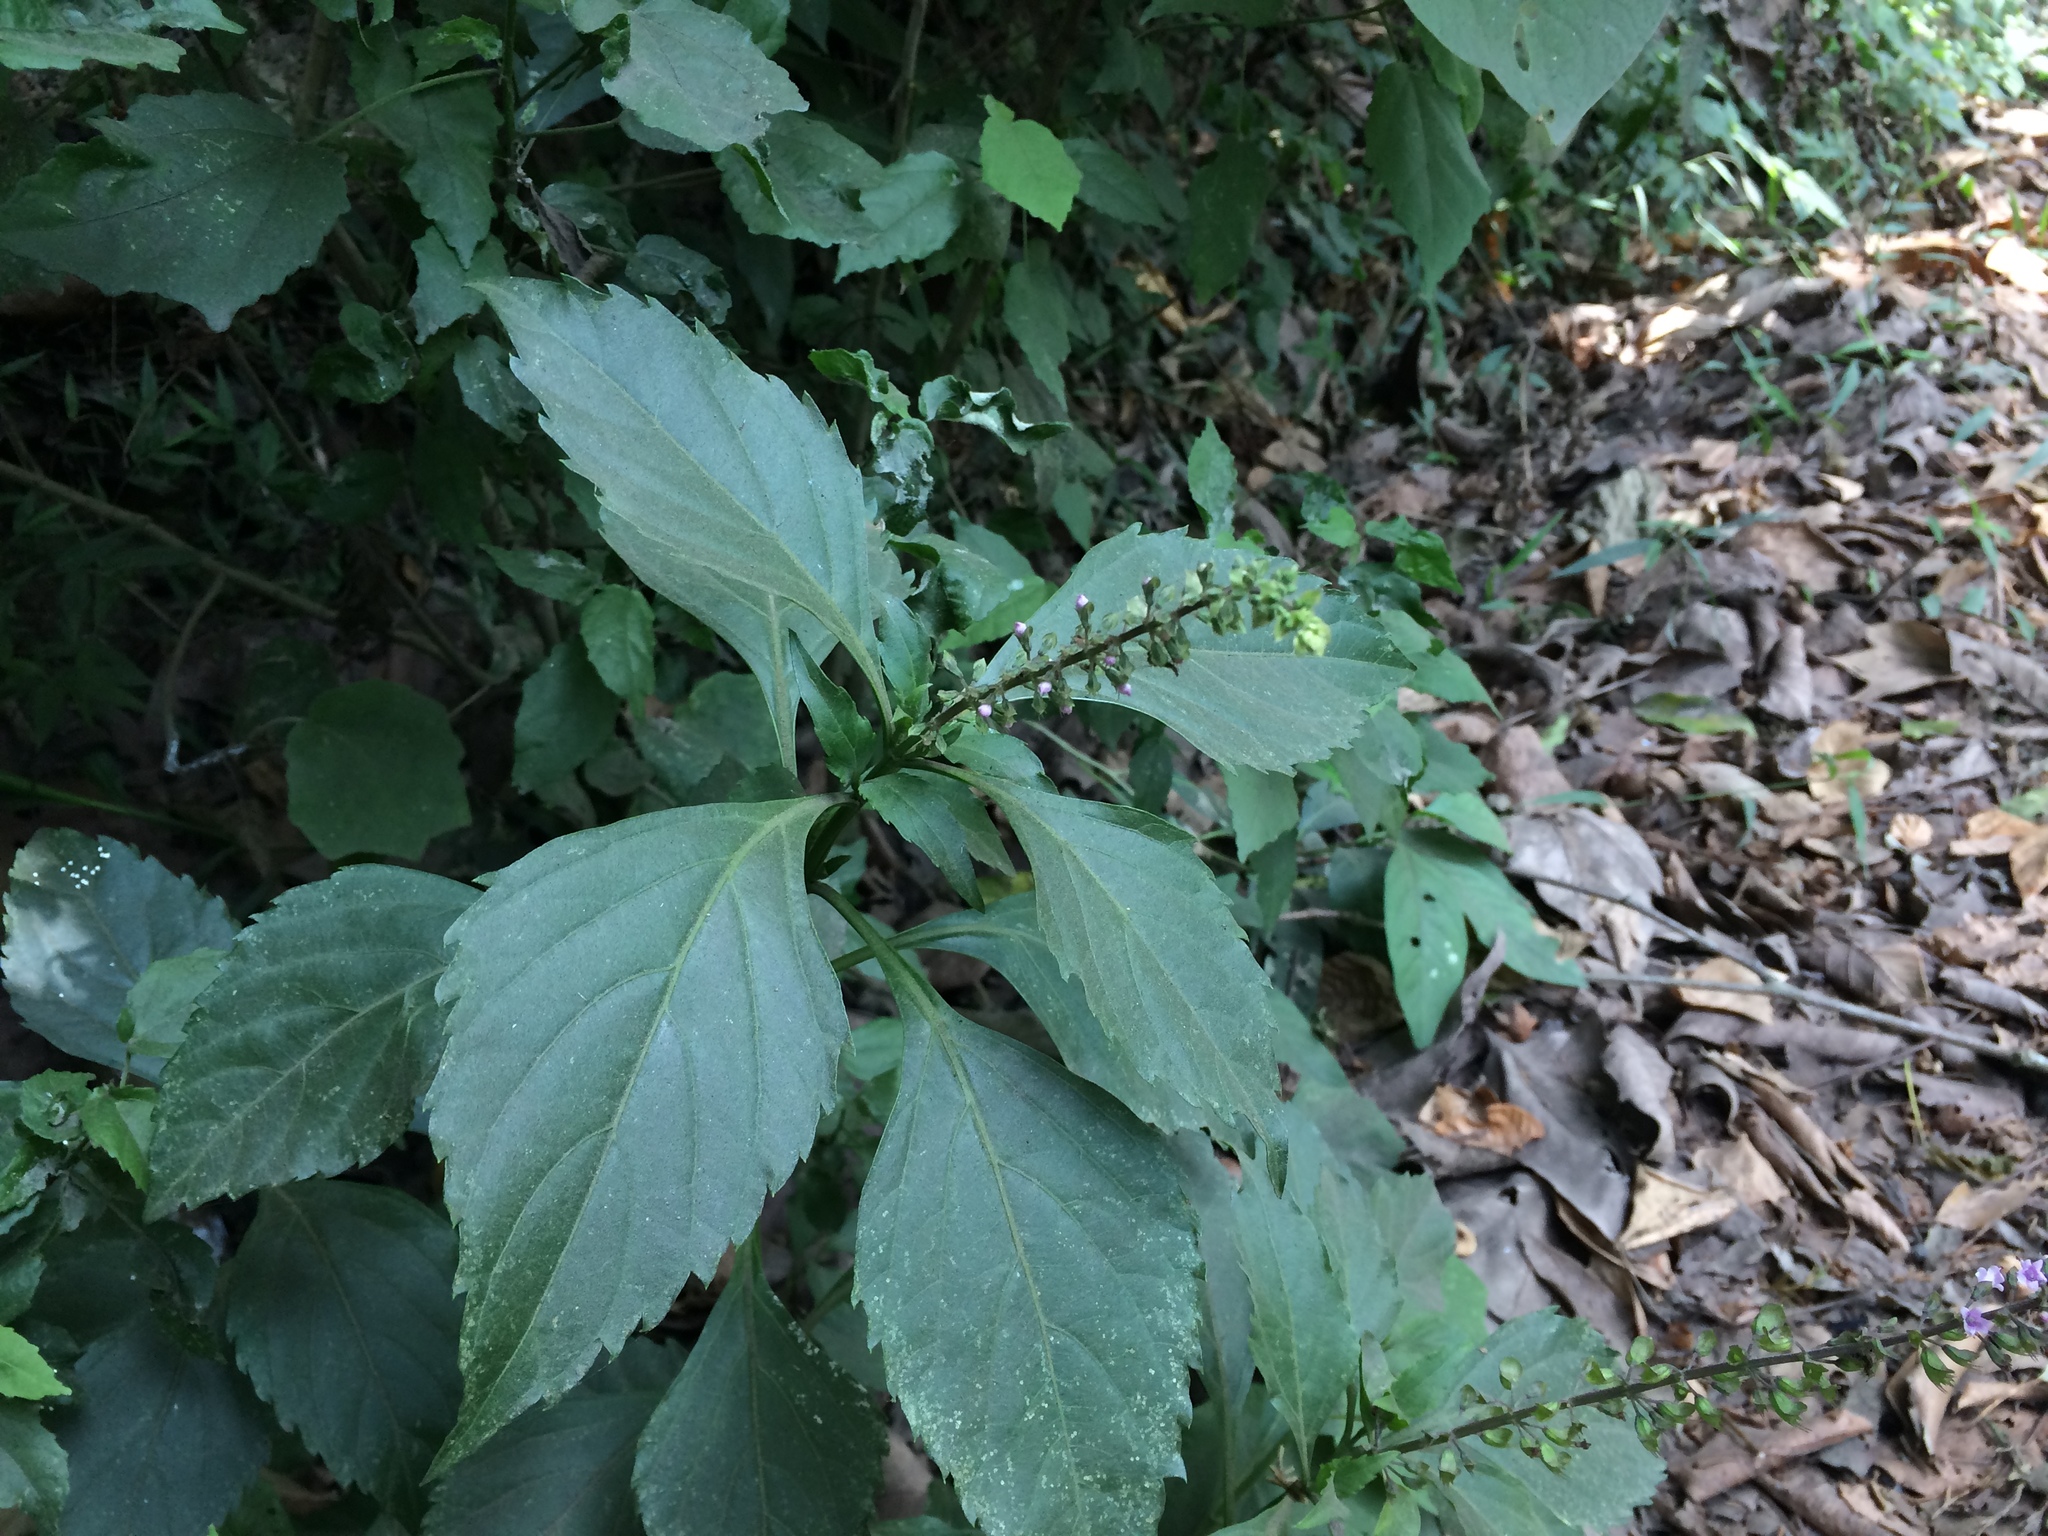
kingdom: Plantae
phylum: Tracheophyta
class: Magnoliopsida
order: Lamiales
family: Lamiaceae
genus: Ocimum
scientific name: Ocimum carnosum
